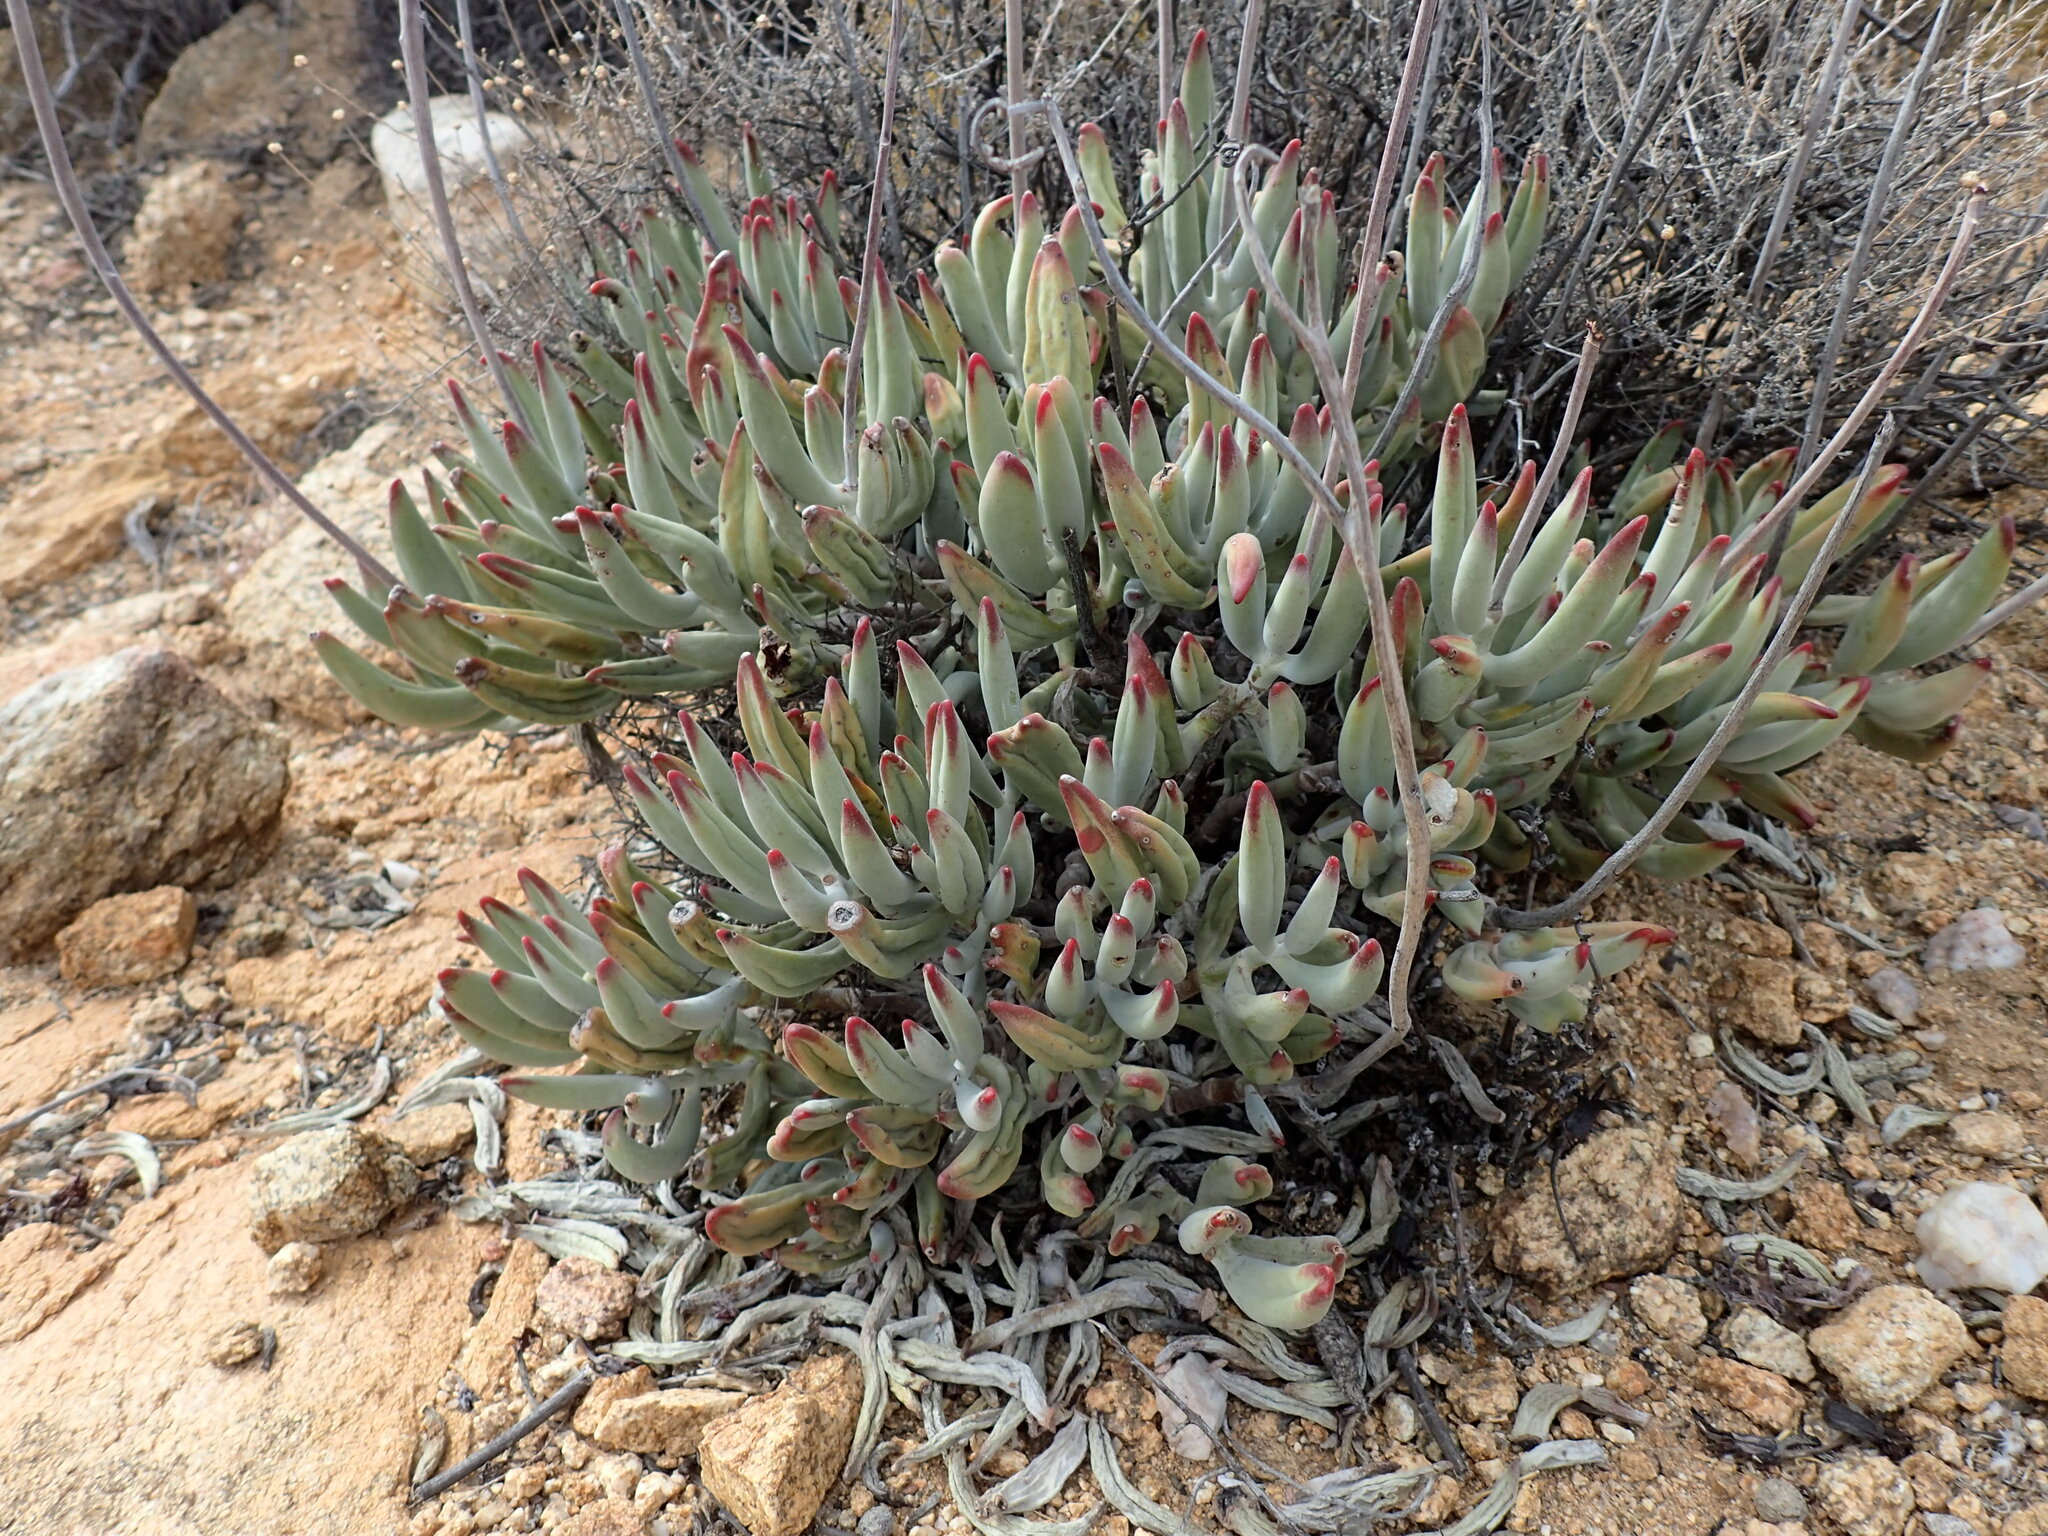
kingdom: Plantae
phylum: Tracheophyta
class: Magnoliopsida
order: Saxifragales
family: Crassulaceae
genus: Cotyledon
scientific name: Cotyledon orbiculata
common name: Pig's ear
